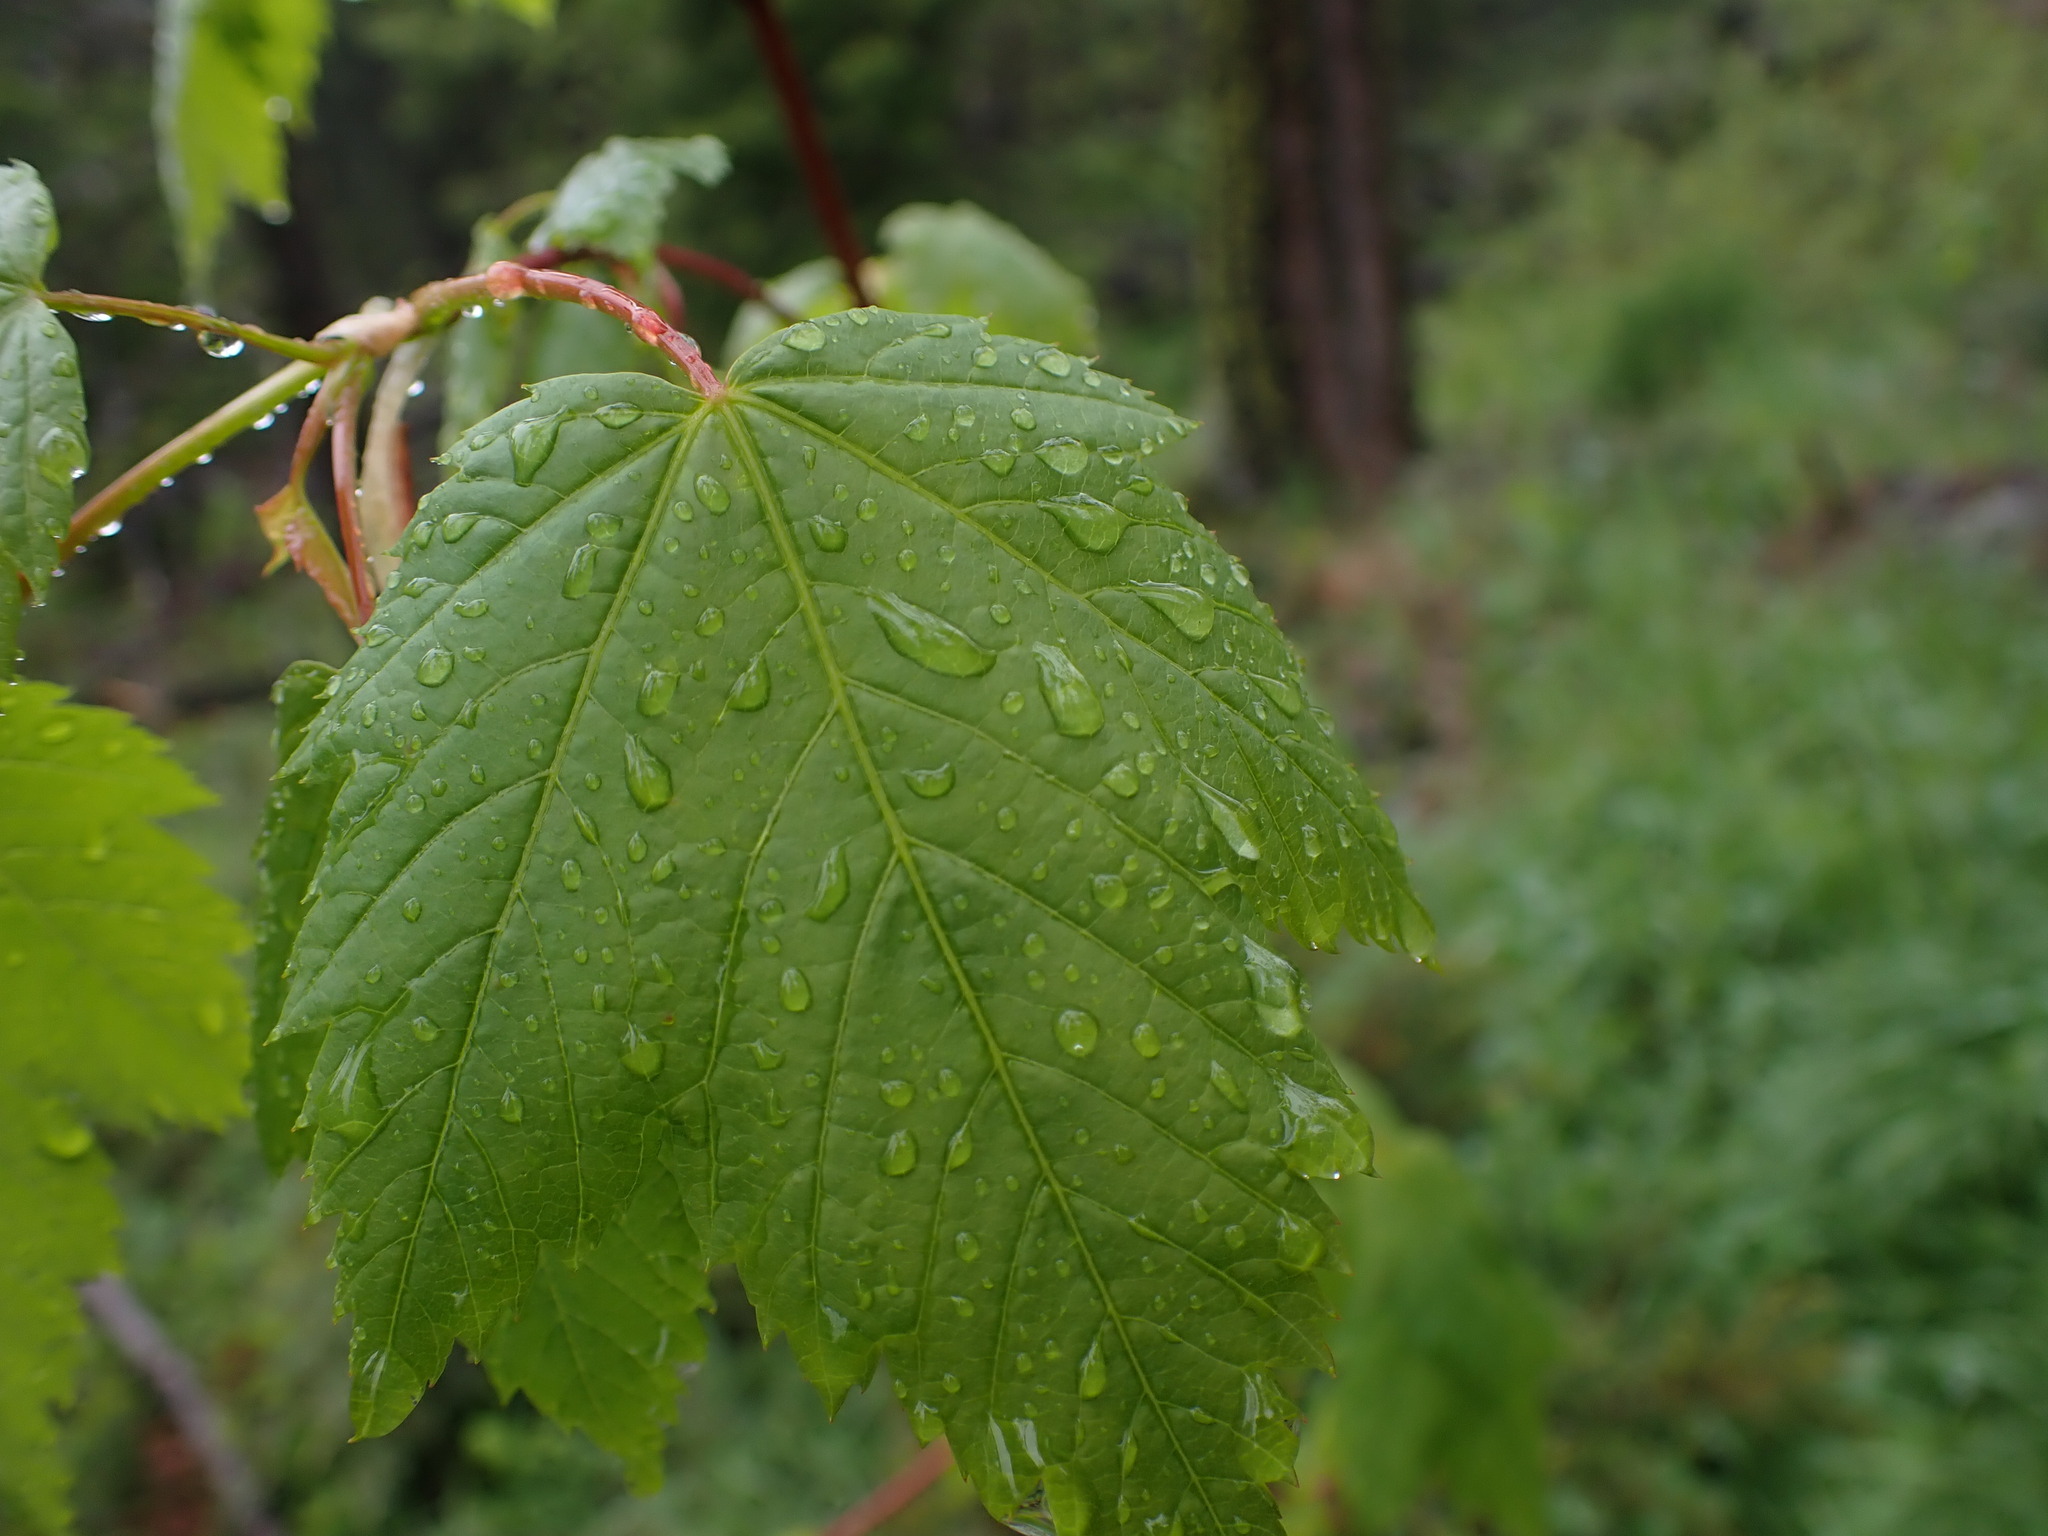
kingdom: Plantae
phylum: Tracheophyta
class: Magnoliopsida
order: Sapindales
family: Sapindaceae
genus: Acer
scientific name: Acer glabrum
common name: Rocky mountain maple
